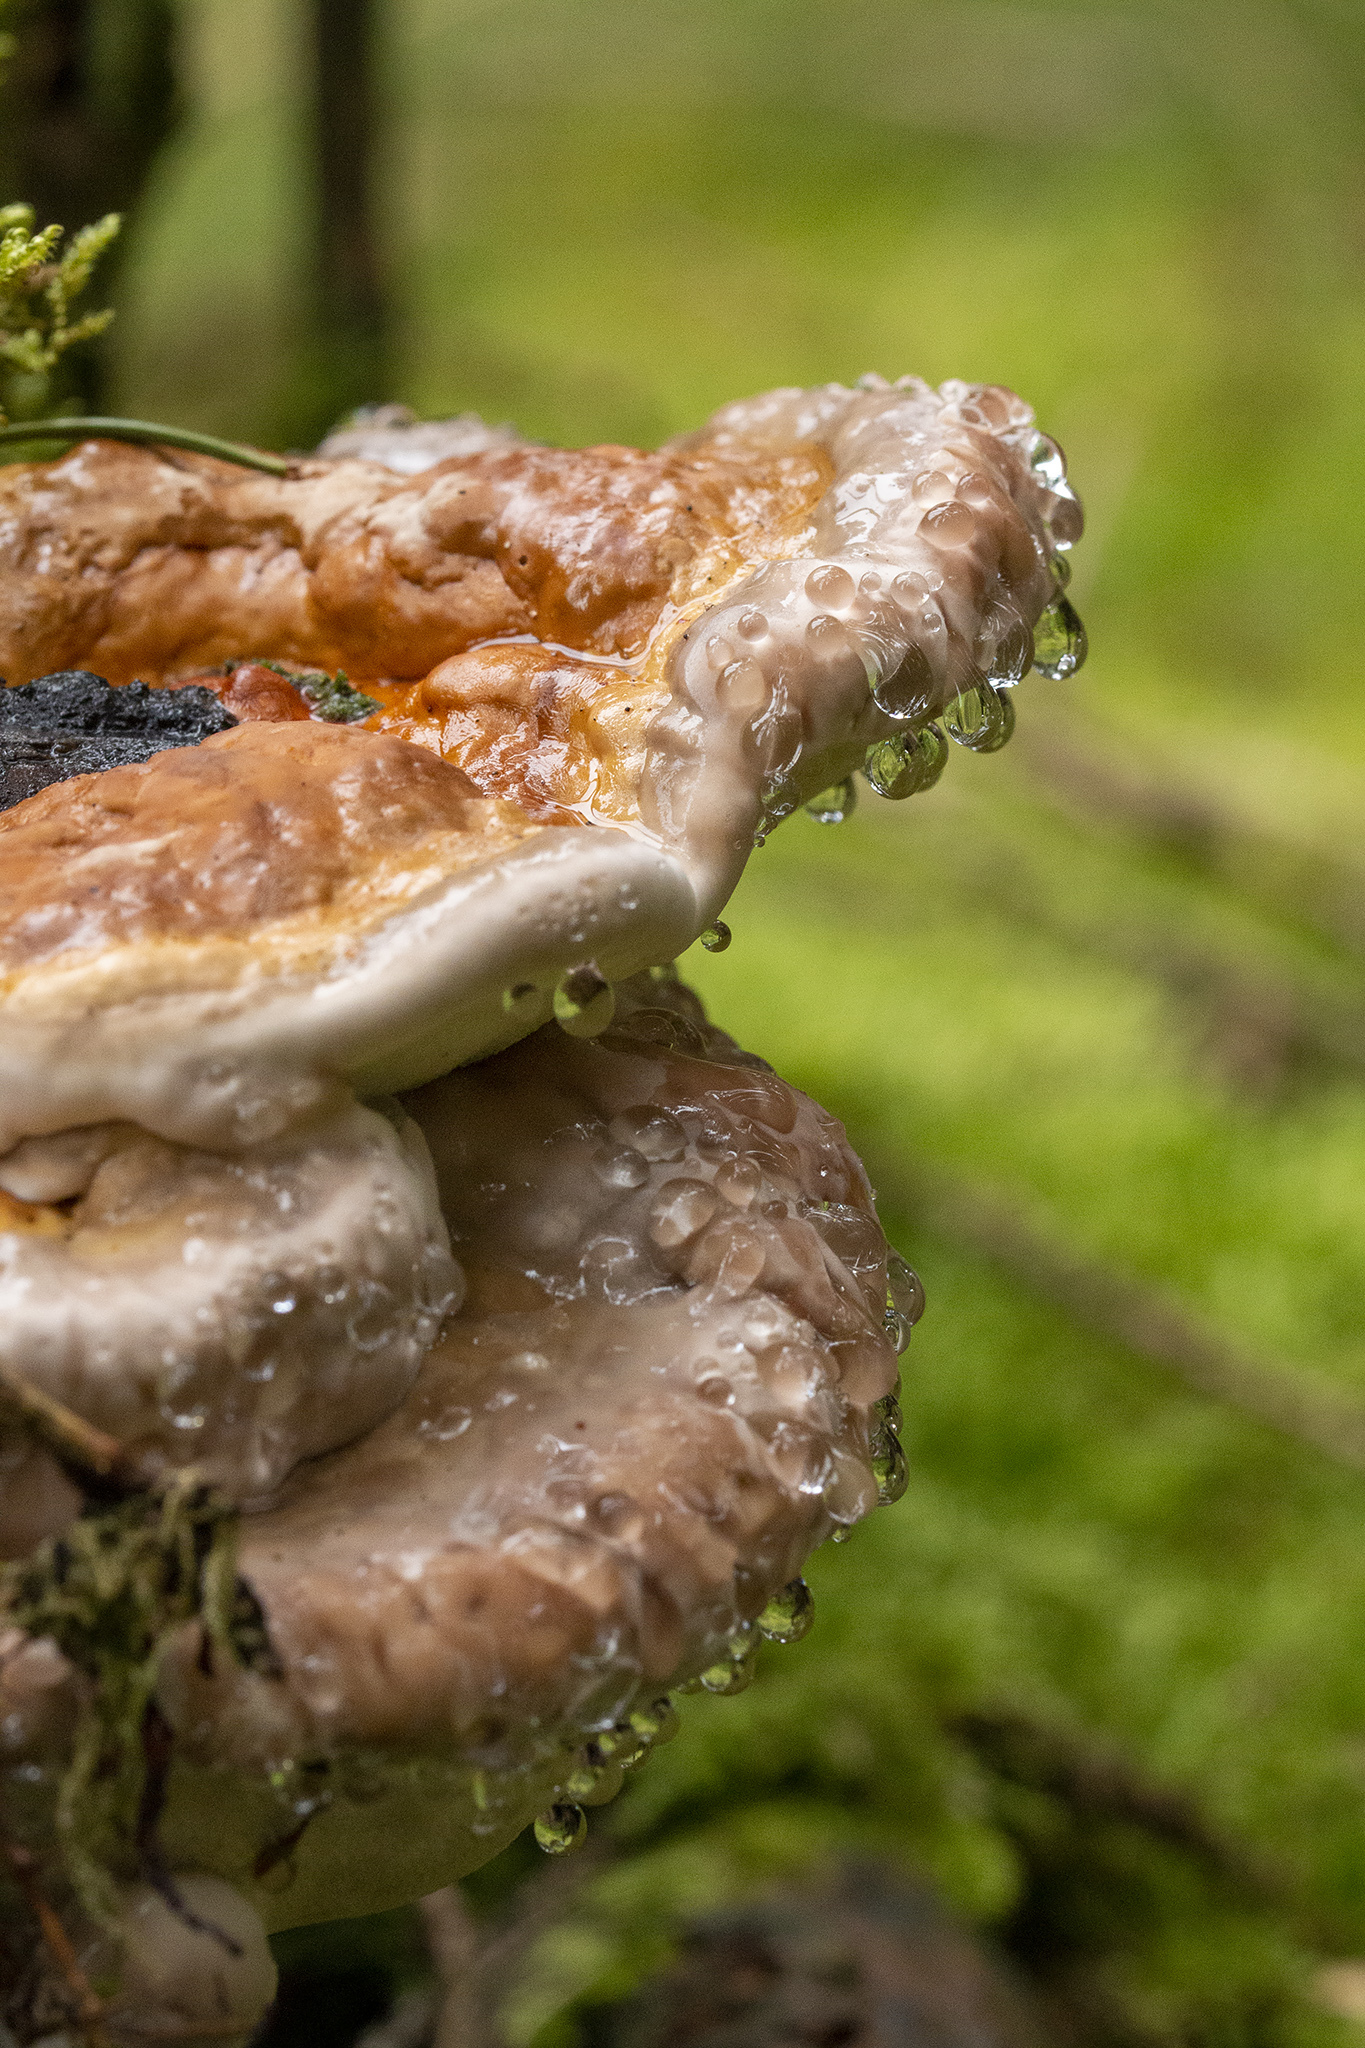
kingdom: Fungi
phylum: Basidiomycota
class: Agaricomycetes
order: Polyporales
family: Fomitopsidaceae
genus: Fomitopsis
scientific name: Fomitopsis pinicola
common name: Red-belted bracket
